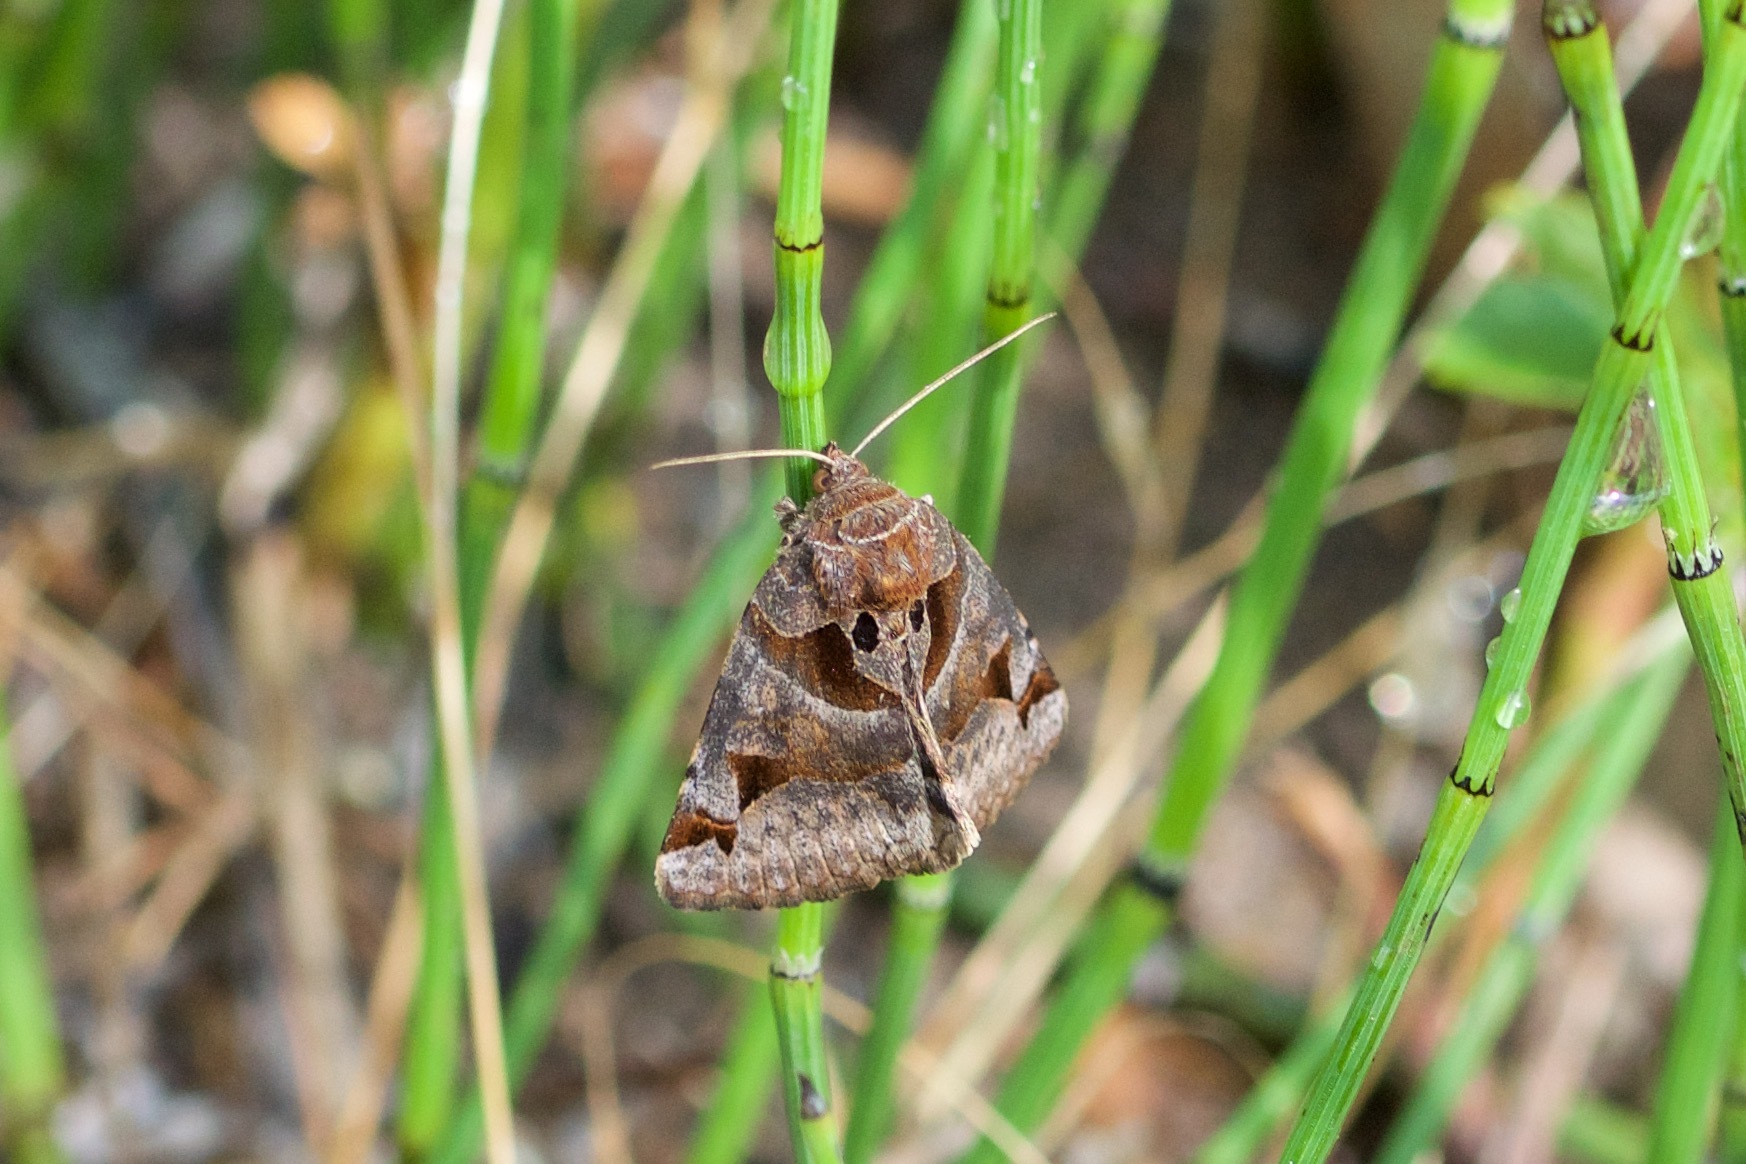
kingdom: Animalia
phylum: Arthropoda
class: Insecta
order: Lepidoptera
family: Erebidae
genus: Euclidia
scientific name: Euclidia cuspidea
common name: Toothed somberwing
